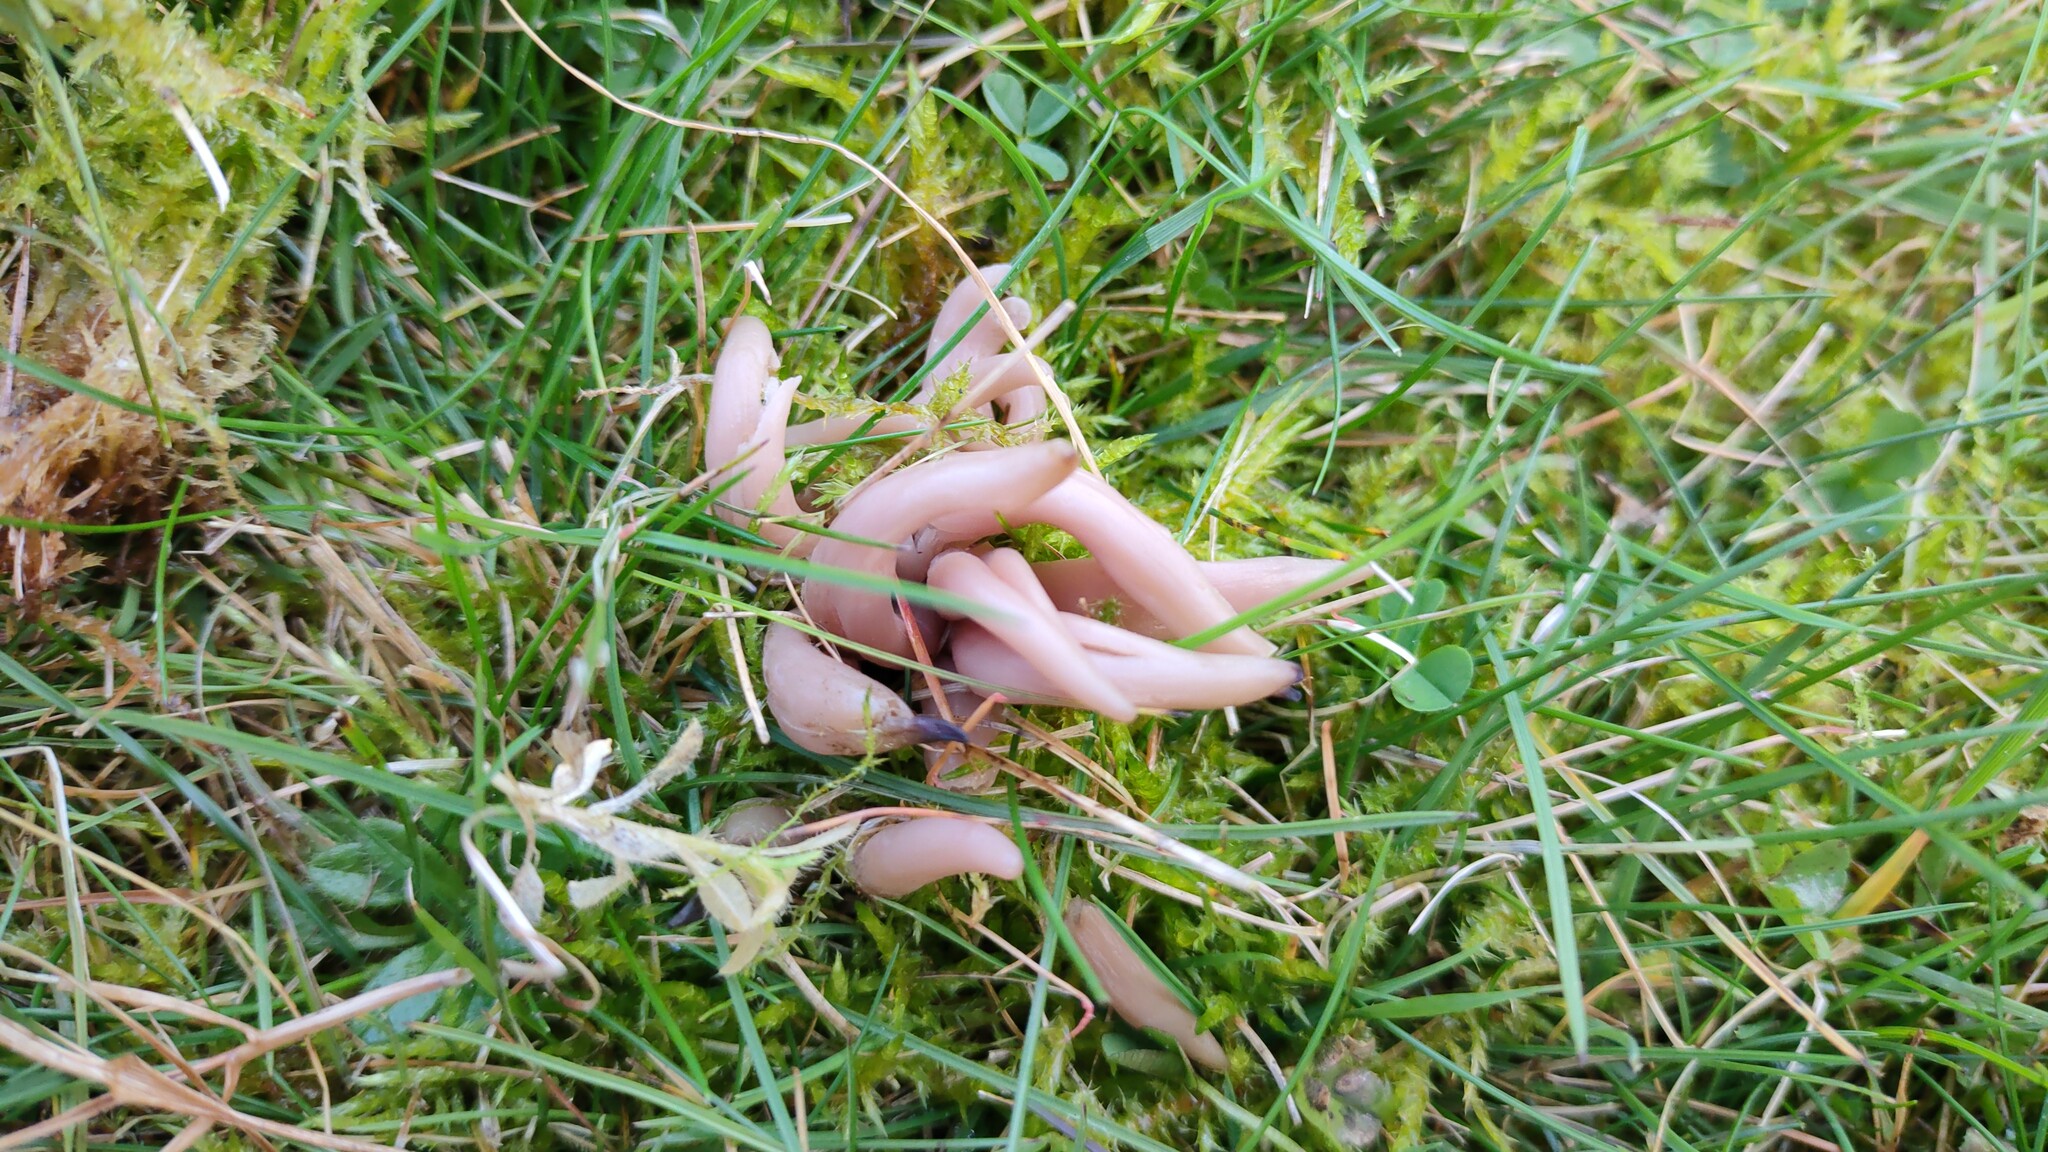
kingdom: Fungi
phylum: Basidiomycota
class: Agaricomycetes
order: Agaricales
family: Clavariaceae
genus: Clavaria
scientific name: Clavaria fumosa
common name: Smoky spindles
